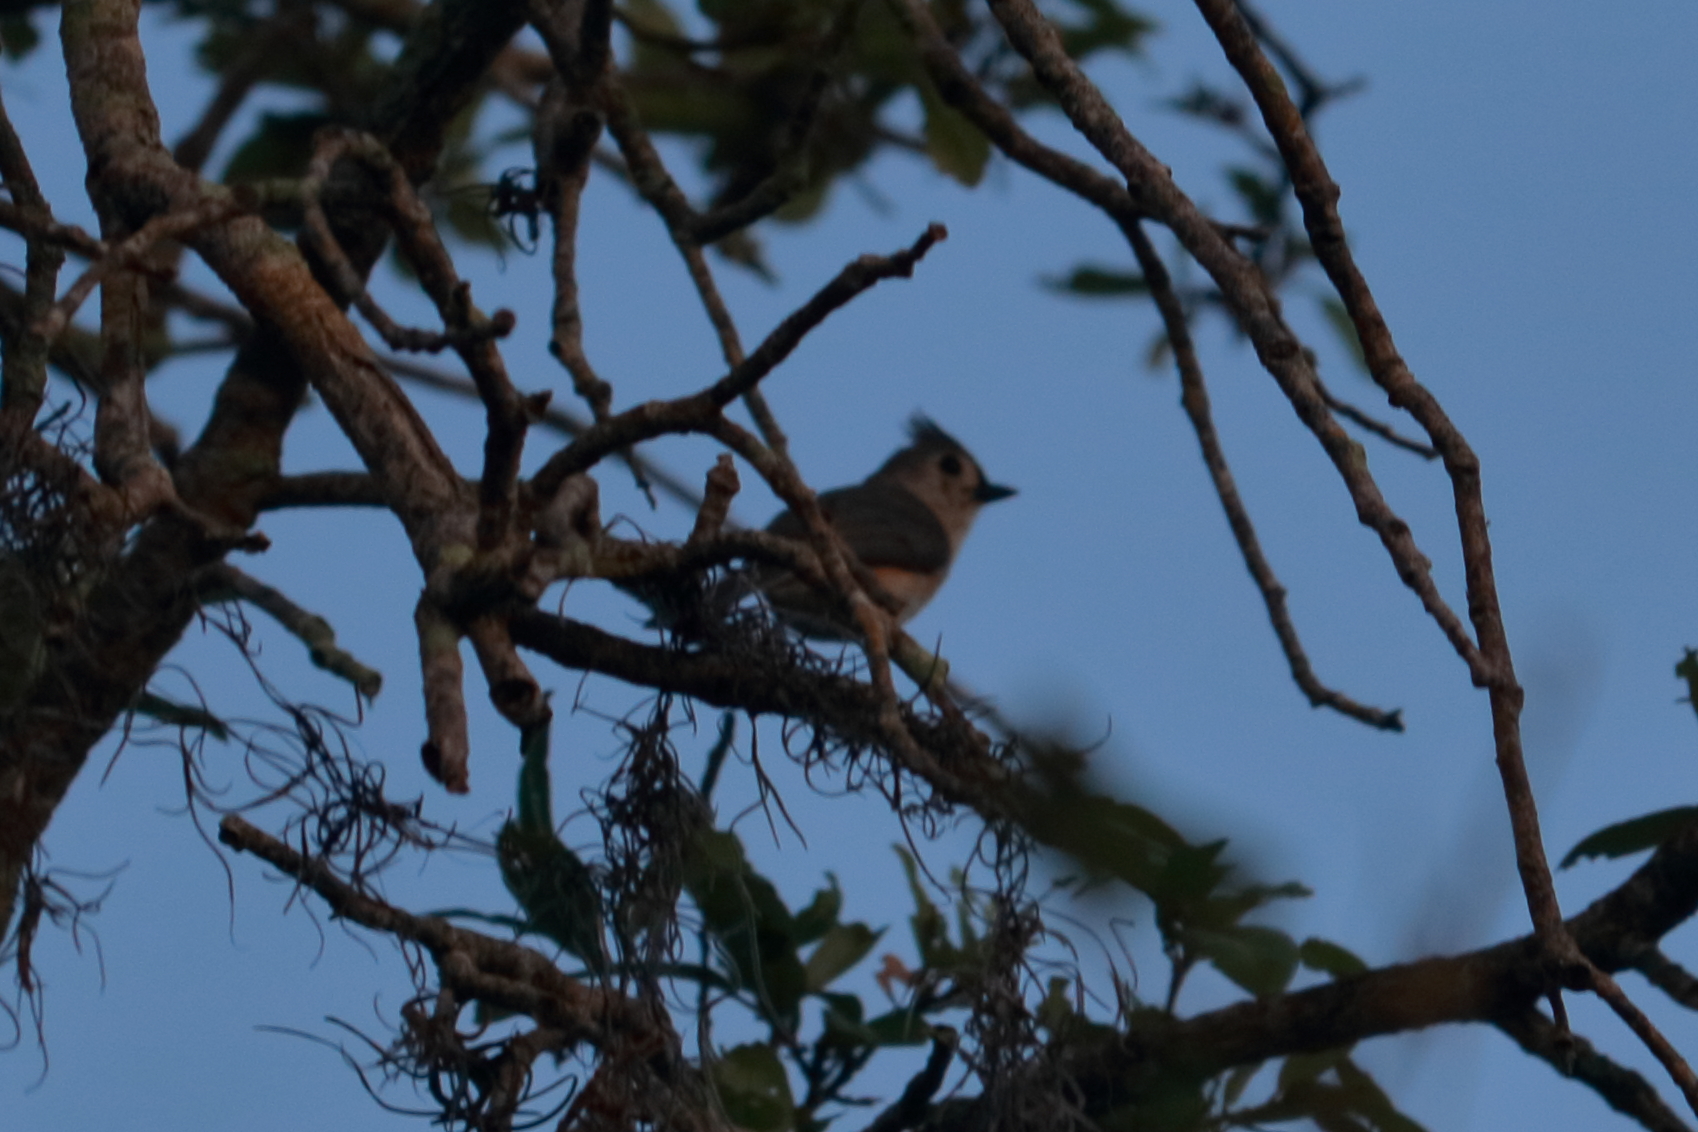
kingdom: Animalia
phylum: Chordata
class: Aves
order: Passeriformes
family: Paridae
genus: Baeolophus
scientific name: Baeolophus bicolor
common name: Tufted titmouse
